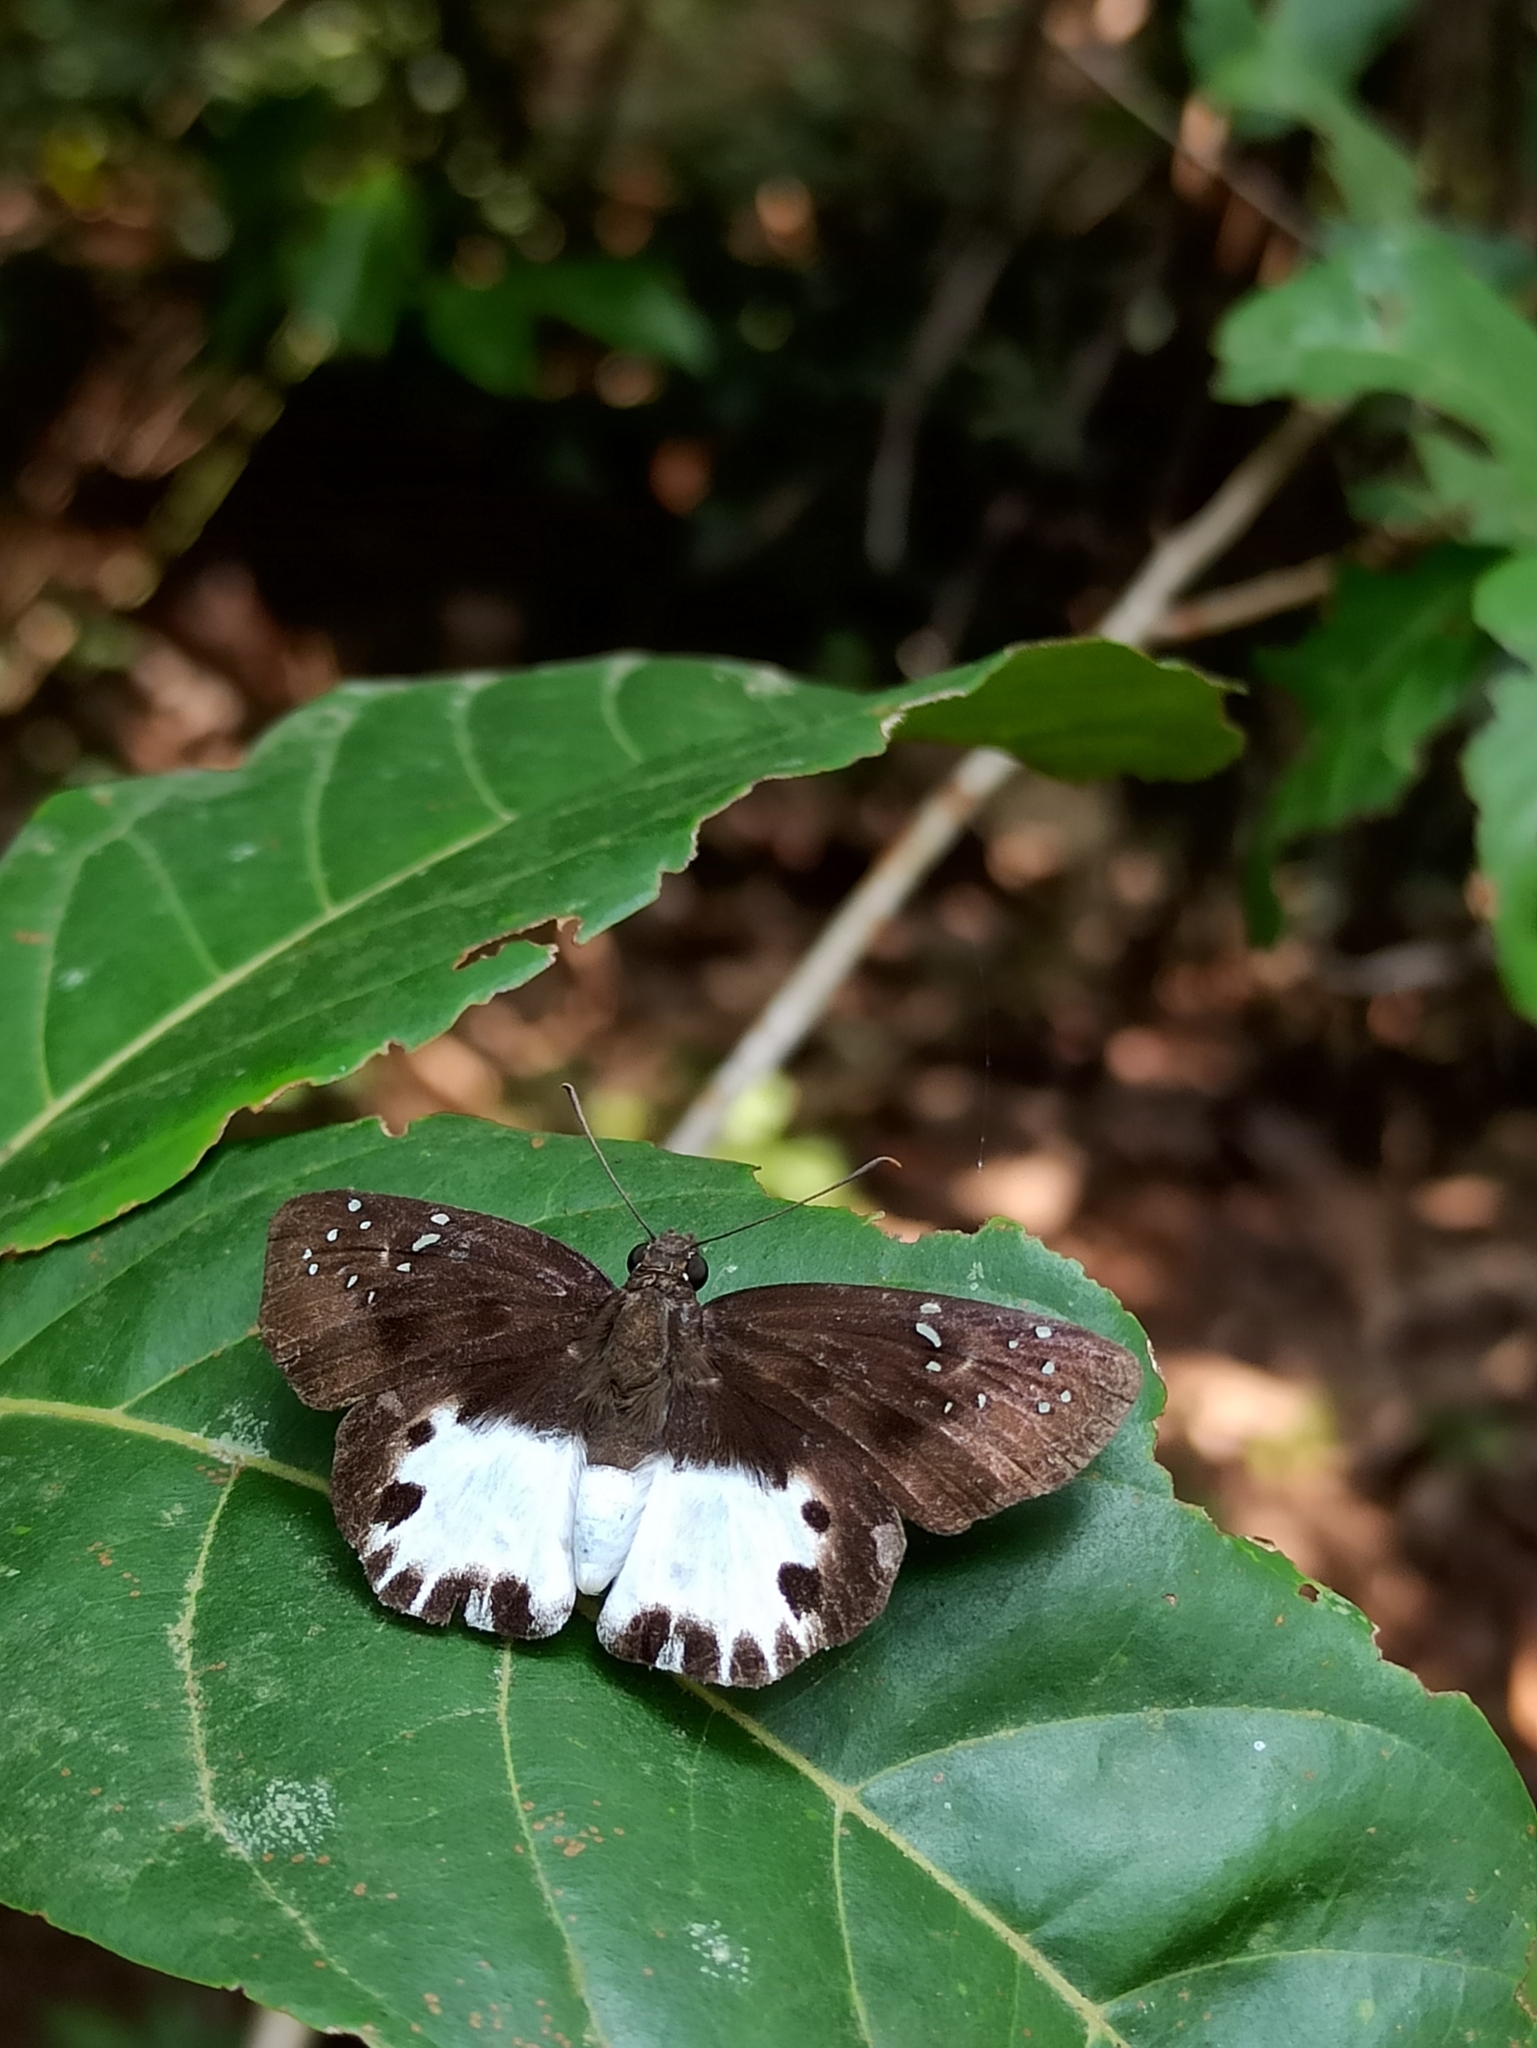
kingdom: Animalia
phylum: Arthropoda
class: Insecta
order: Lepidoptera
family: Hesperiidae
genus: Tagiades
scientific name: Tagiades litigiosa
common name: Water snow flat
